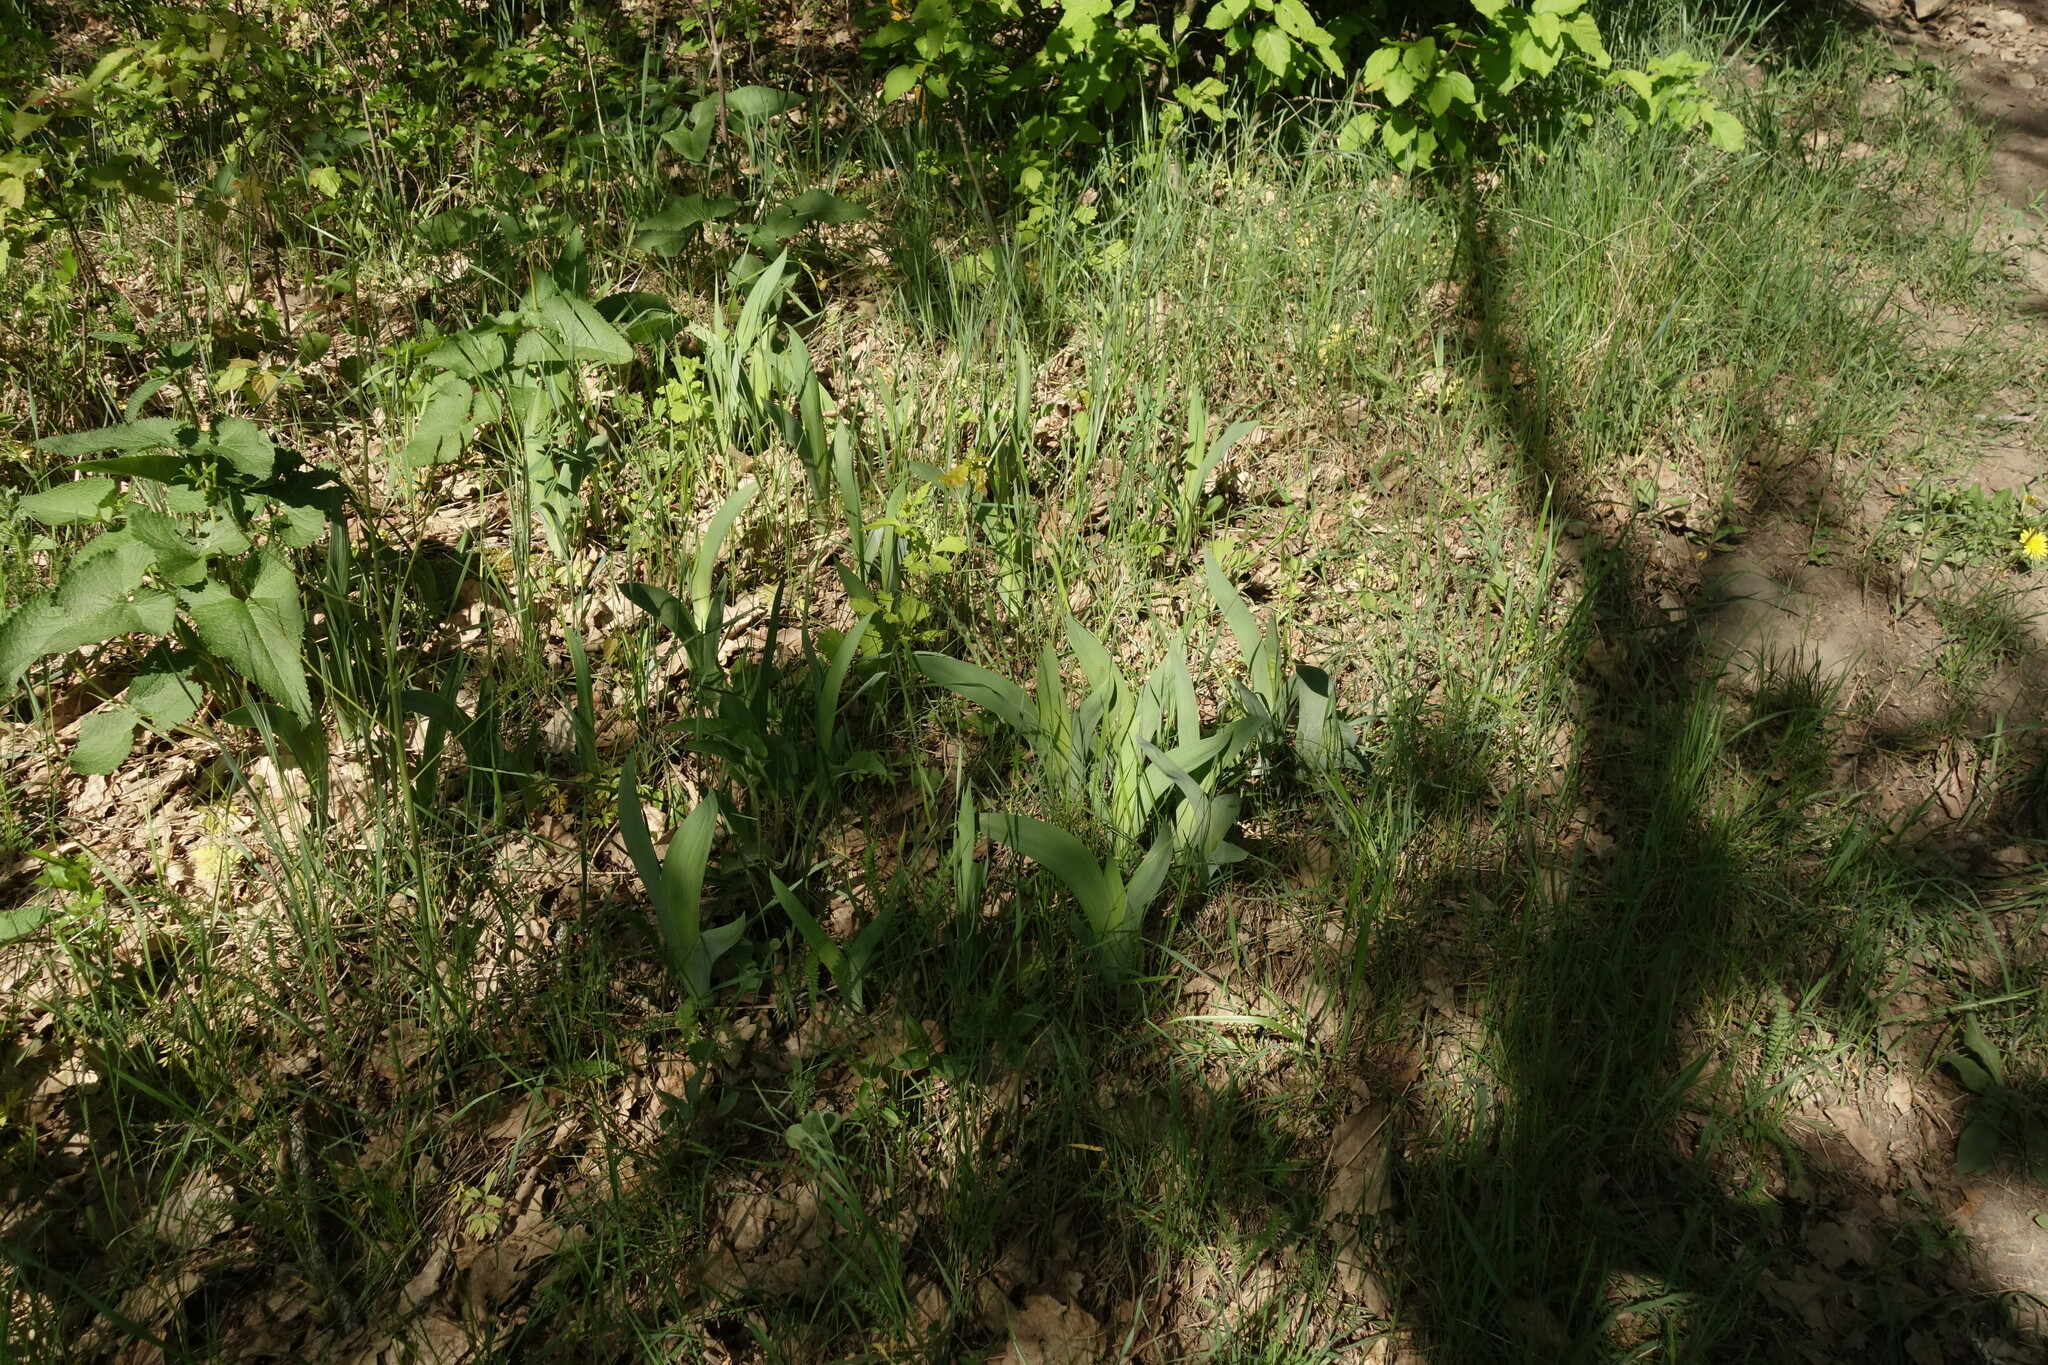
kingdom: Plantae
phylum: Tracheophyta
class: Liliopsida
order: Asparagales
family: Iridaceae
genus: Iris
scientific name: Iris aphylla
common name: Stool iris
